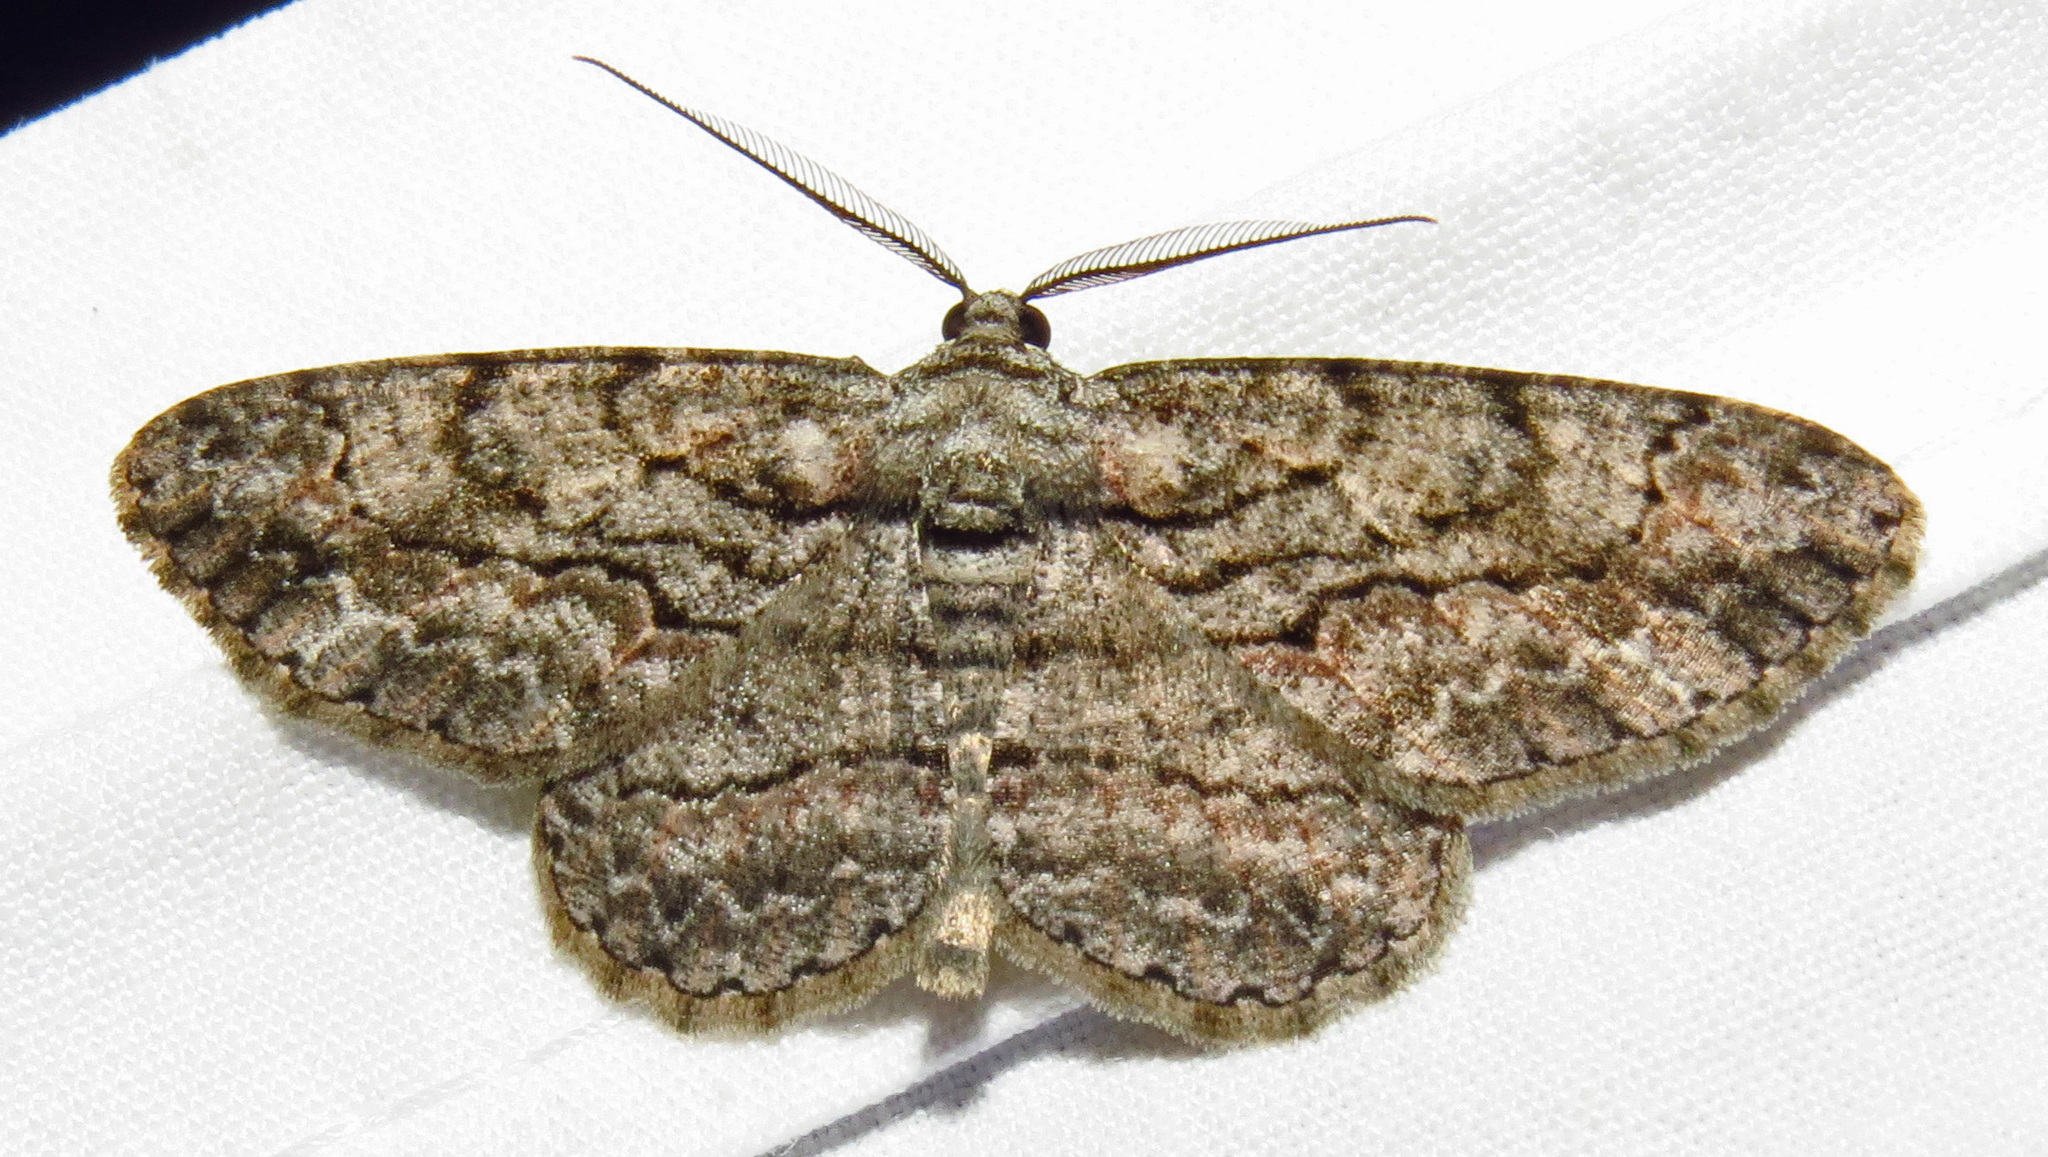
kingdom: Animalia
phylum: Arthropoda
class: Insecta
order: Lepidoptera
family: Geometridae
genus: Anavitrinella
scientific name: Anavitrinella pampinaria
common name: Common gray
